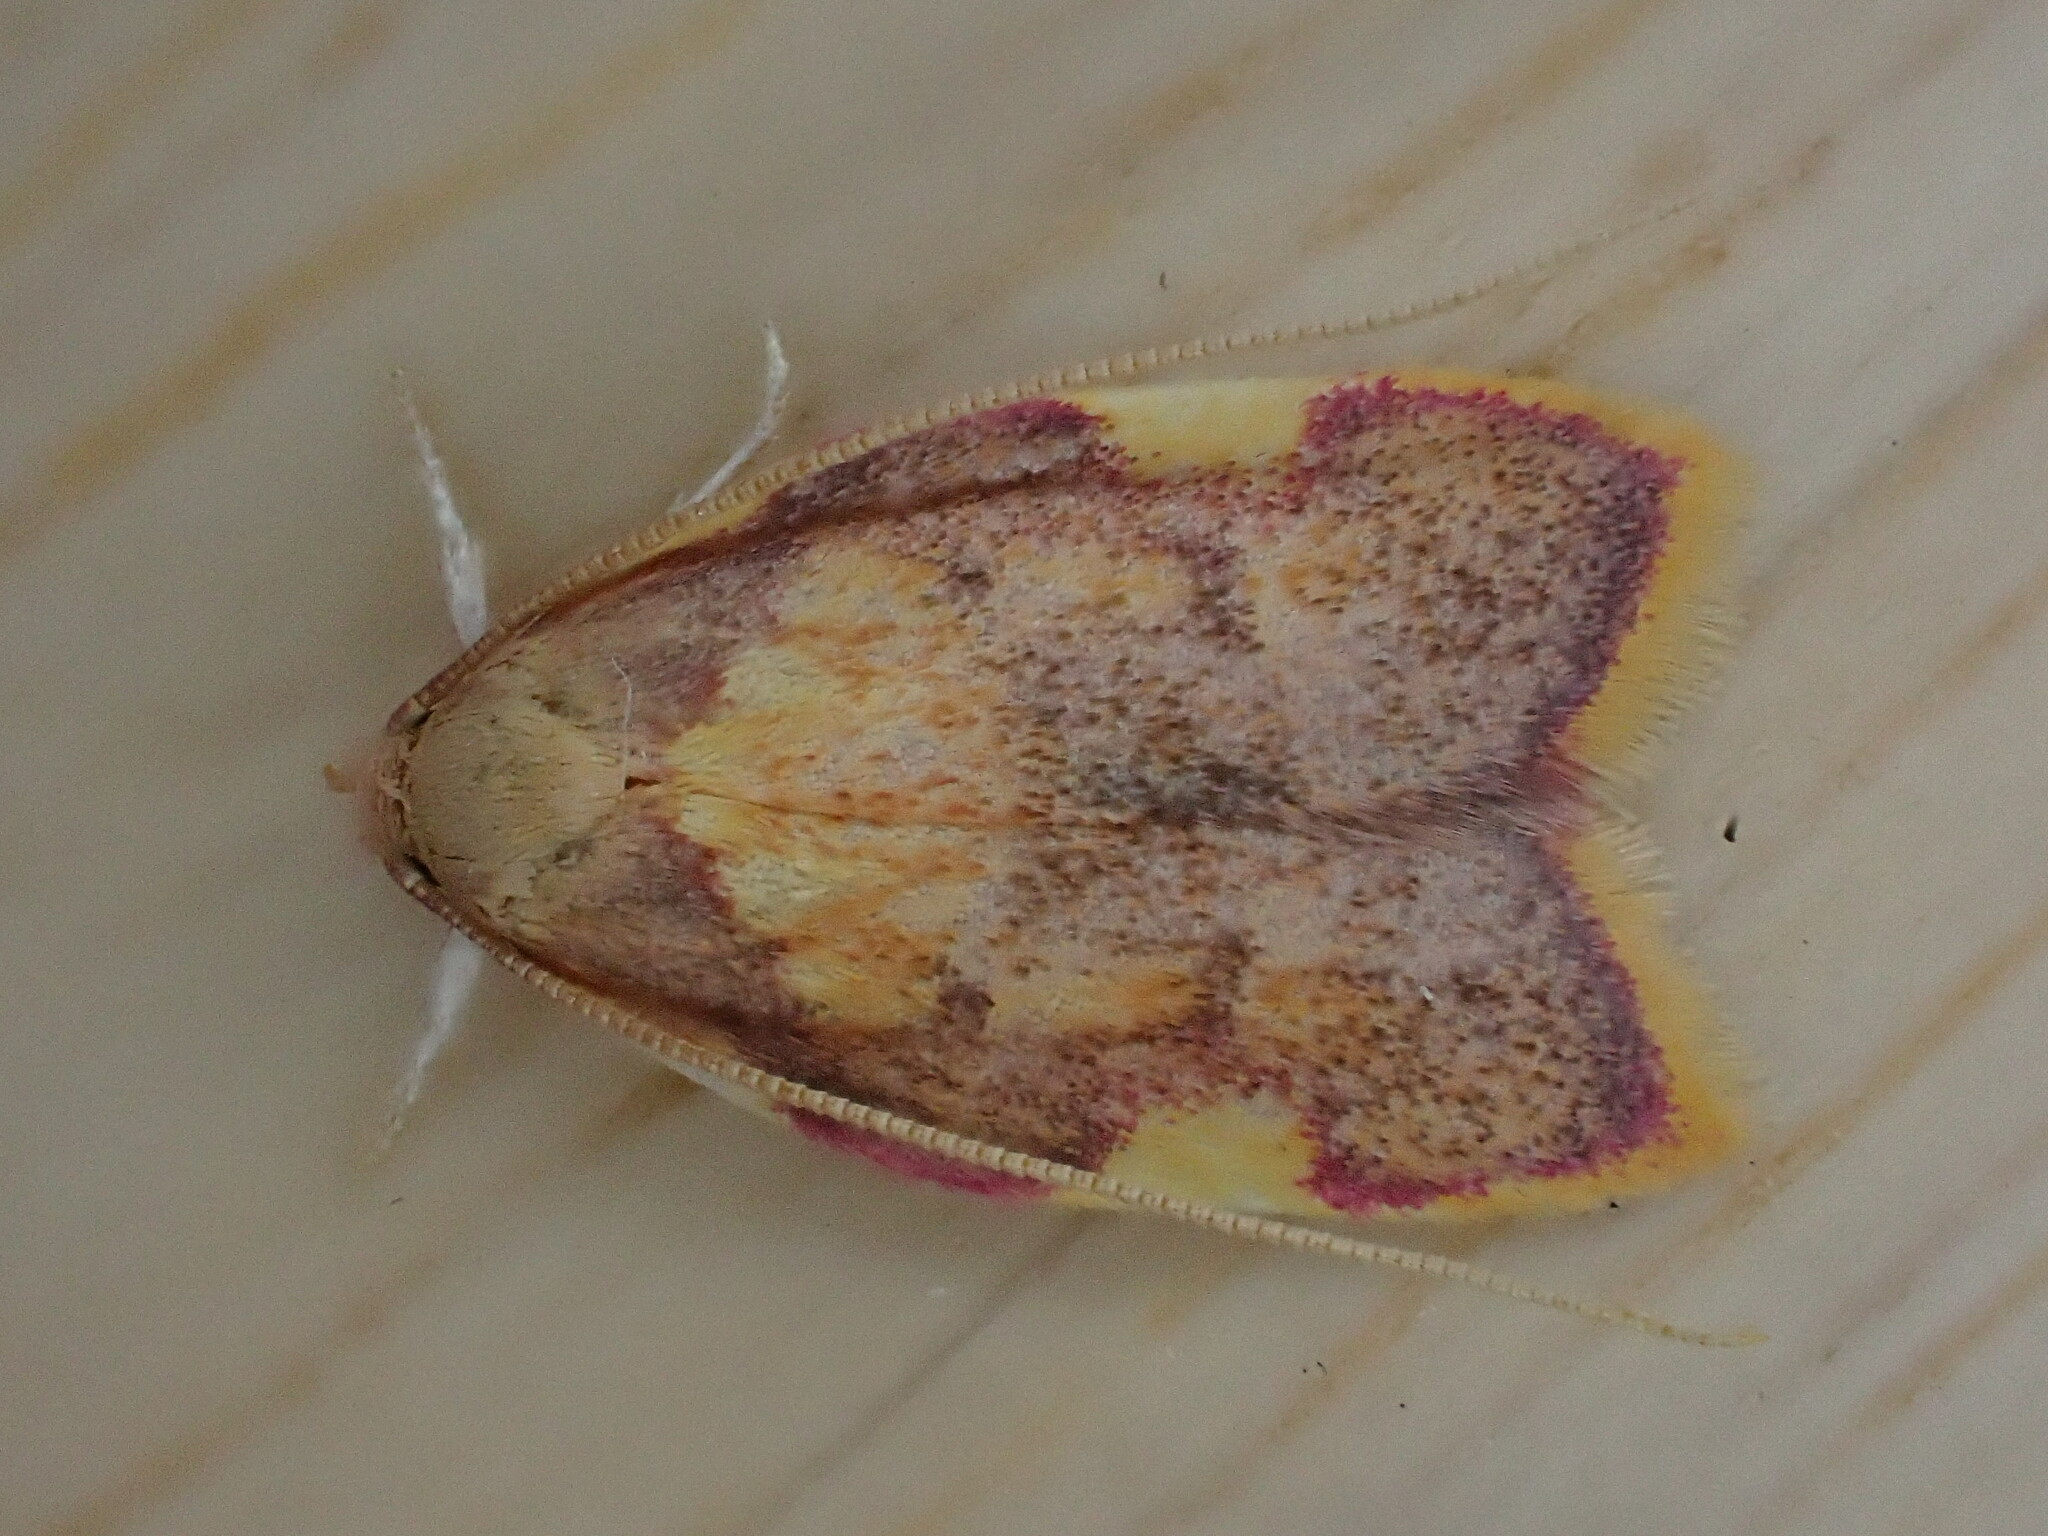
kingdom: Animalia
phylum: Arthropoda
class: Insecta
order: Lepidoptera
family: Peleopodidae
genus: Carcina
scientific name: Carcina quercana
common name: Moth
